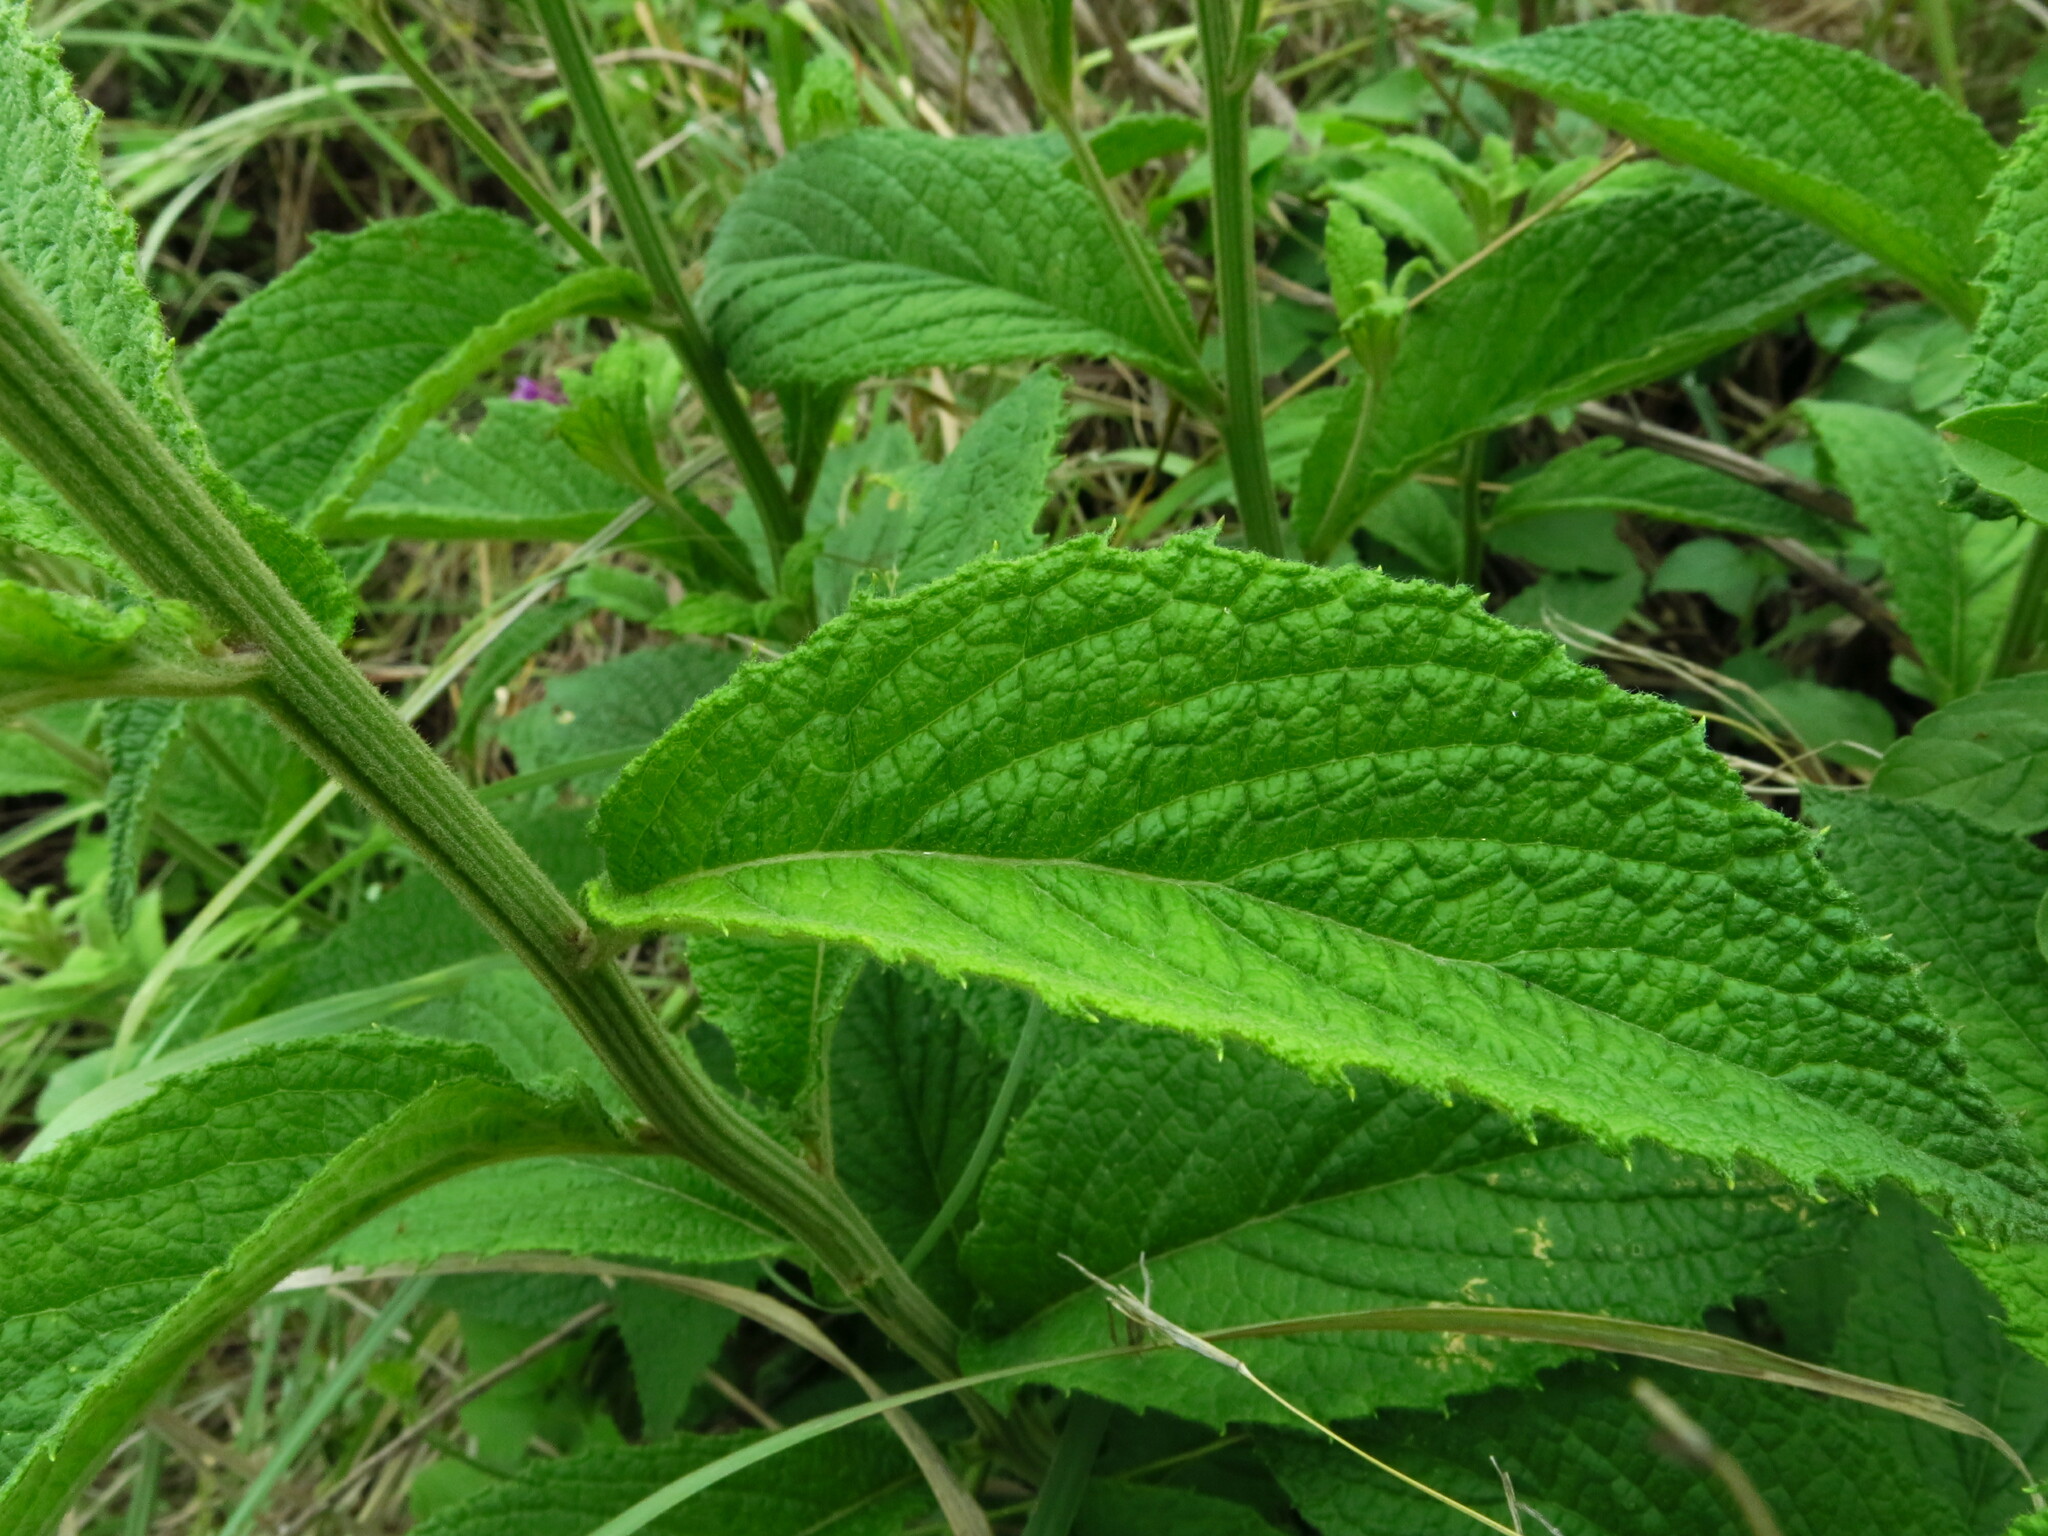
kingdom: Plantae
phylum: Tracheophyta
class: Magnoliopsida
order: Asterales
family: Asteraceae
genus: Hilliardiella
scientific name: Hilliardiella flanaganii
